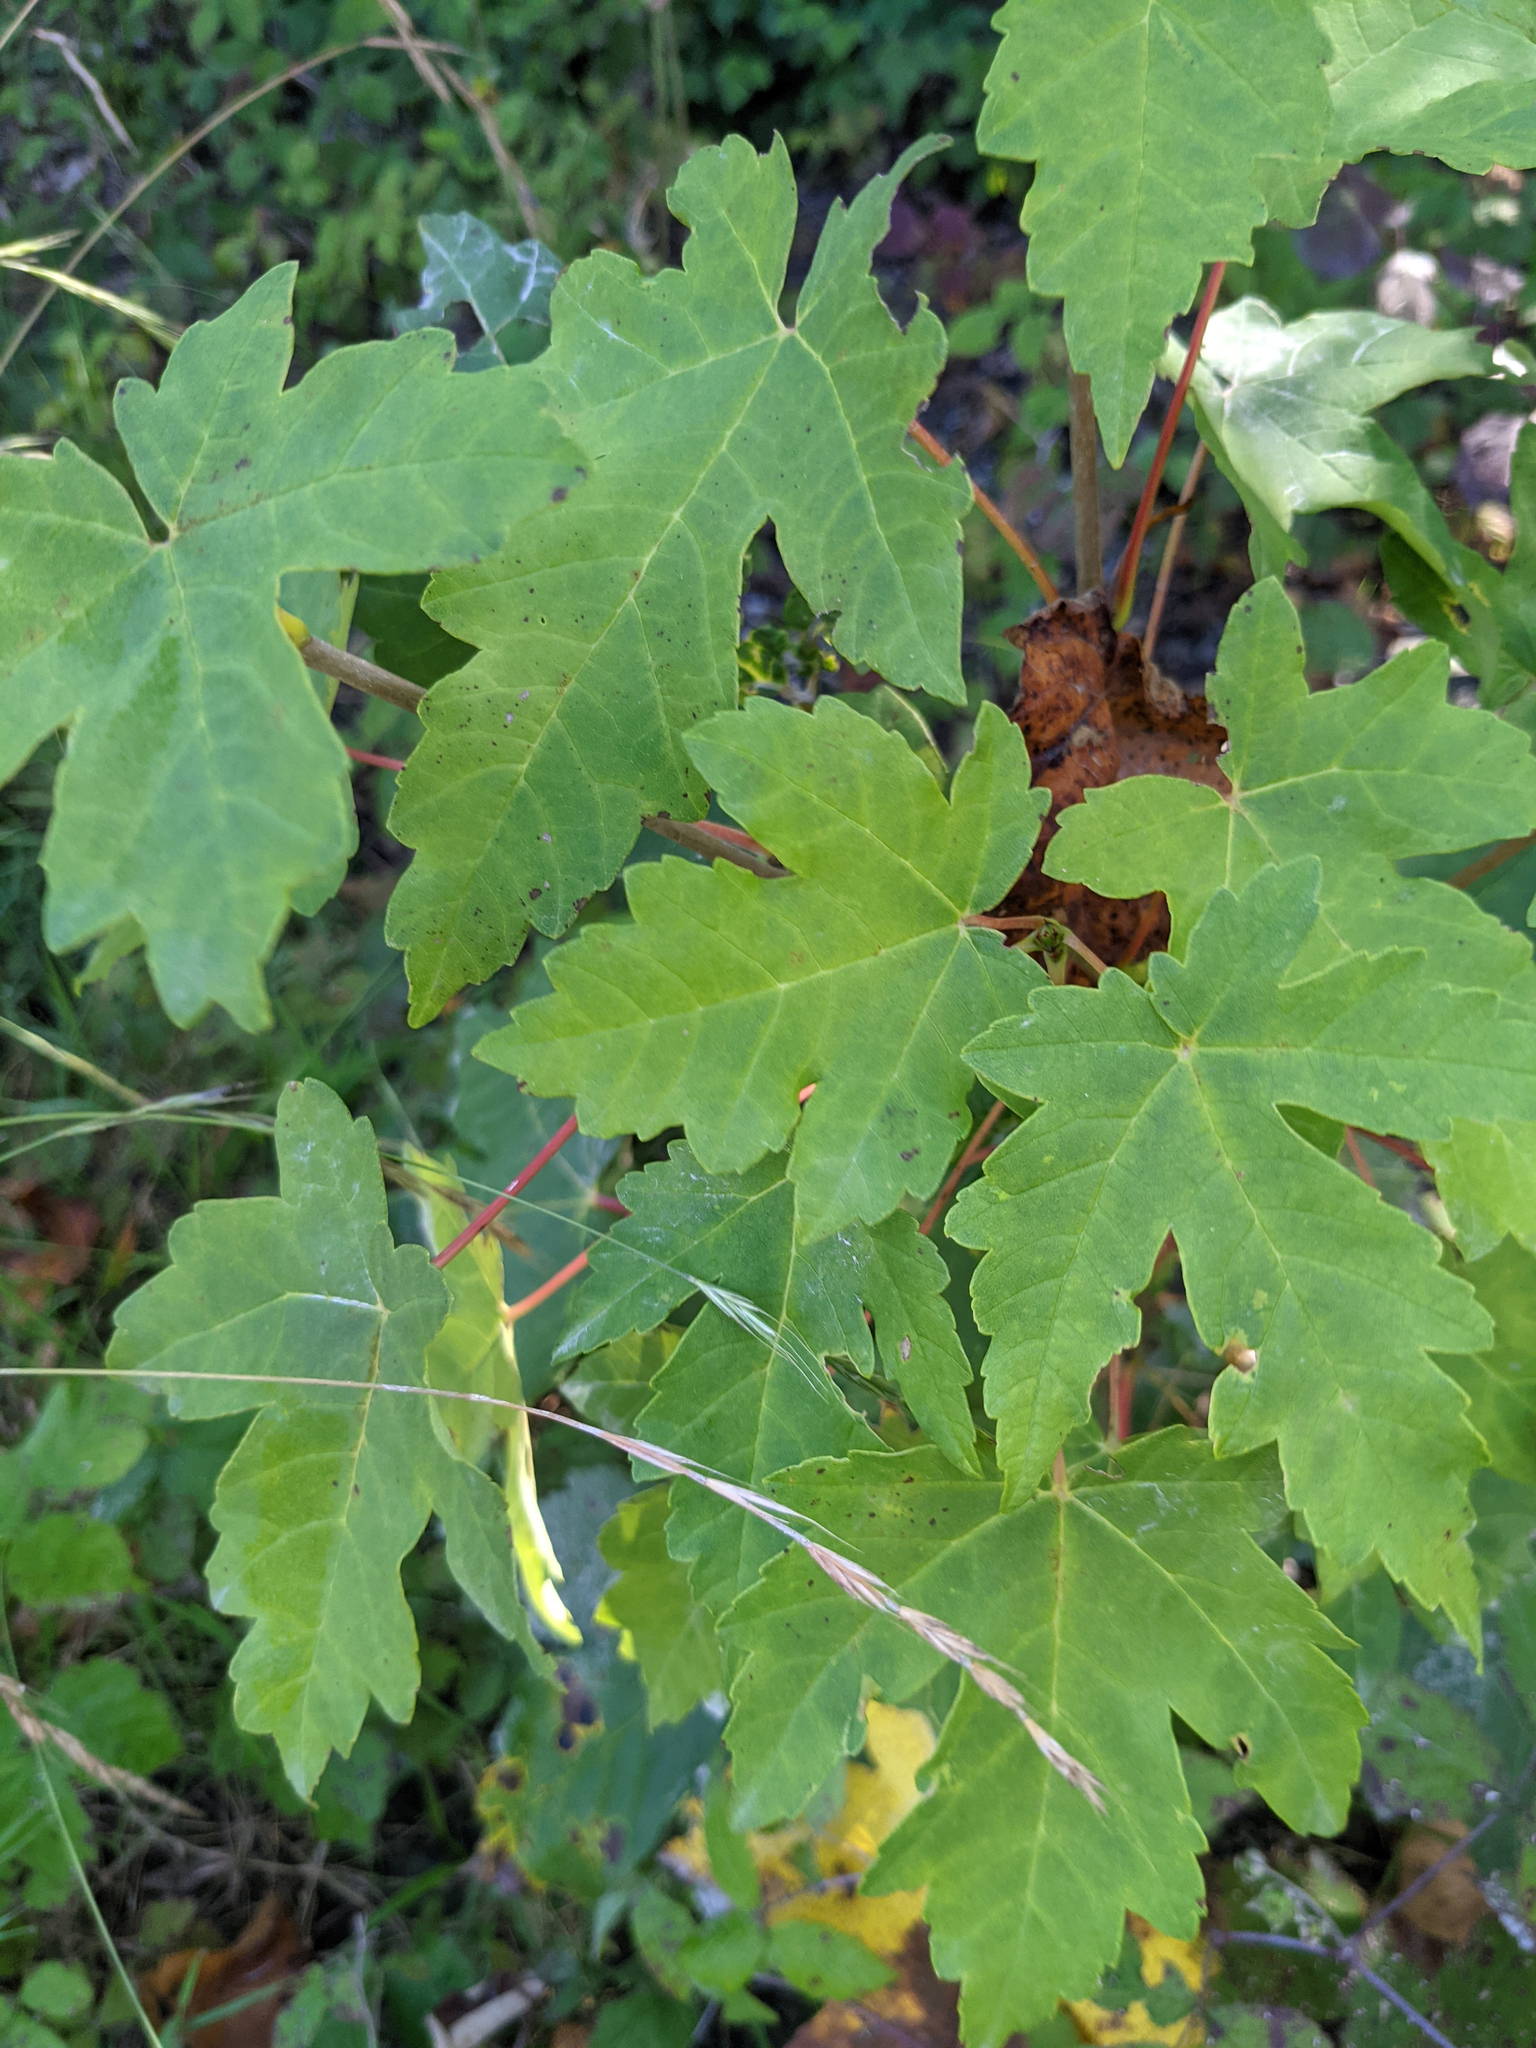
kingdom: Plantae
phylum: Tracheophyta
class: Magnoliopsida
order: Sapindales
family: Sapindaceae
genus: Acer
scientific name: Acer pseudoplatanus
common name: Sycamore
